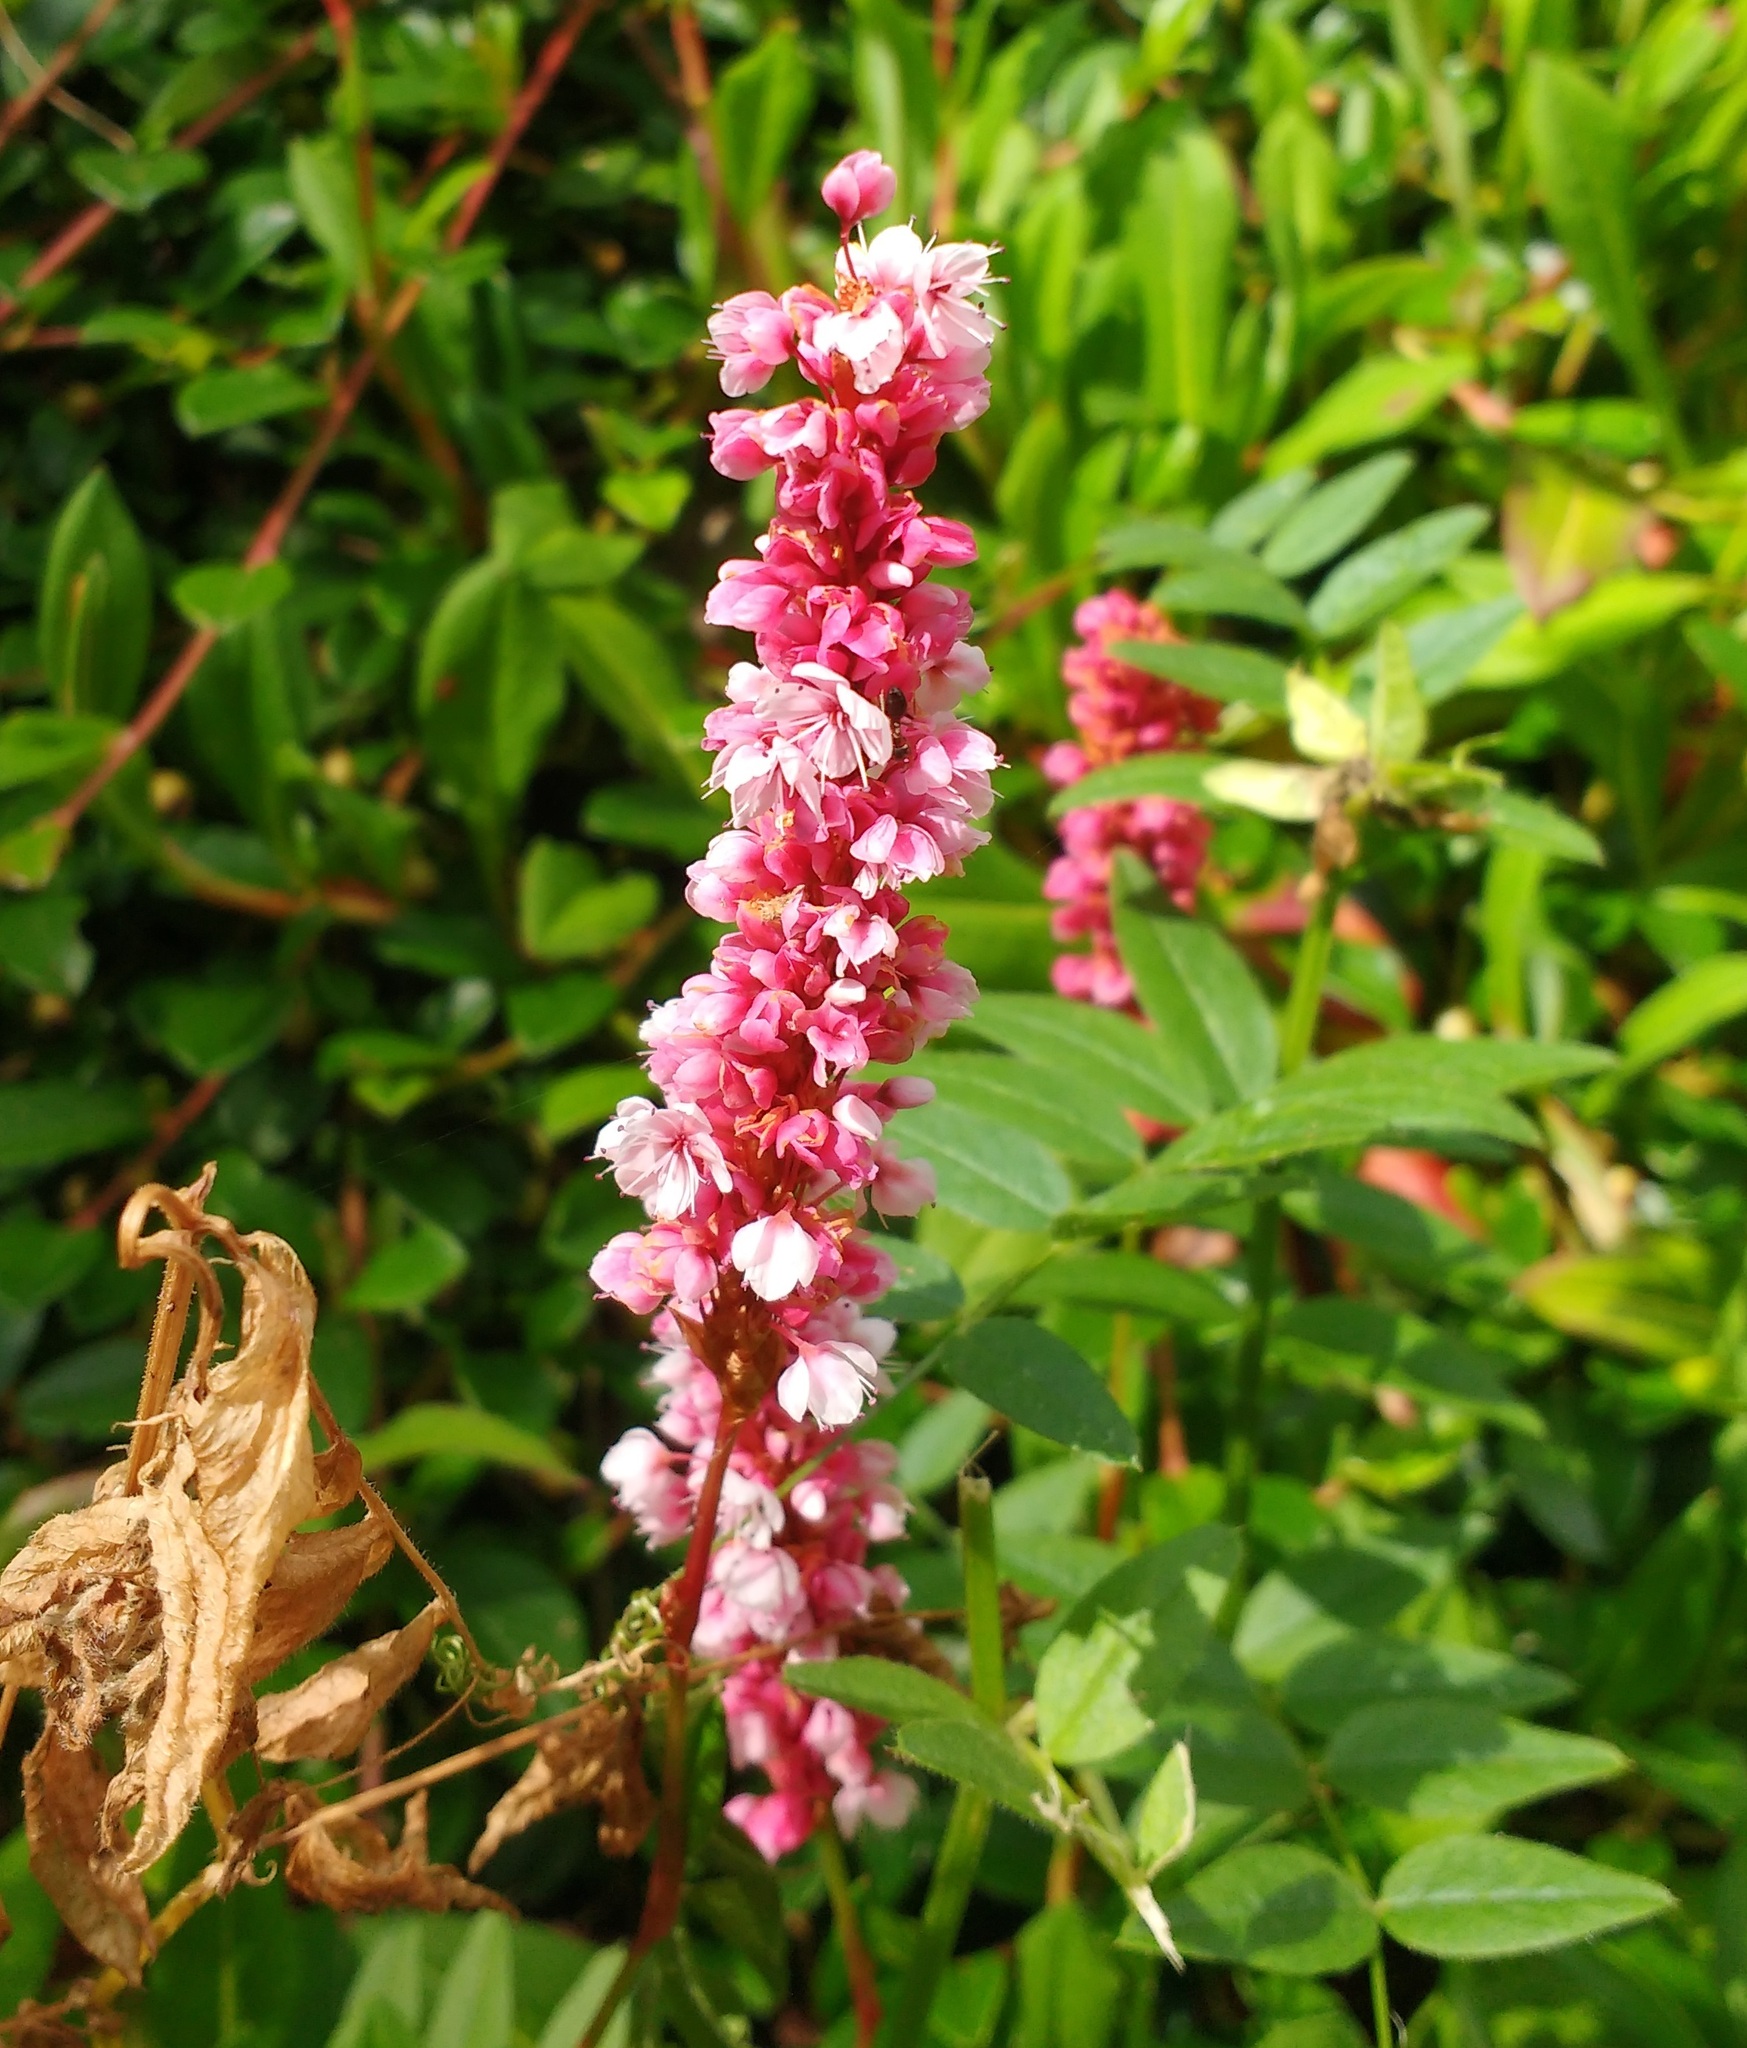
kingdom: Plantae
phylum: Tracheophyta
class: Magnoliopsida
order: Caryophyllales
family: Polygonaceae
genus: Bistorta
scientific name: Bistorta affinis
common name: Himalayan fleeceflower
